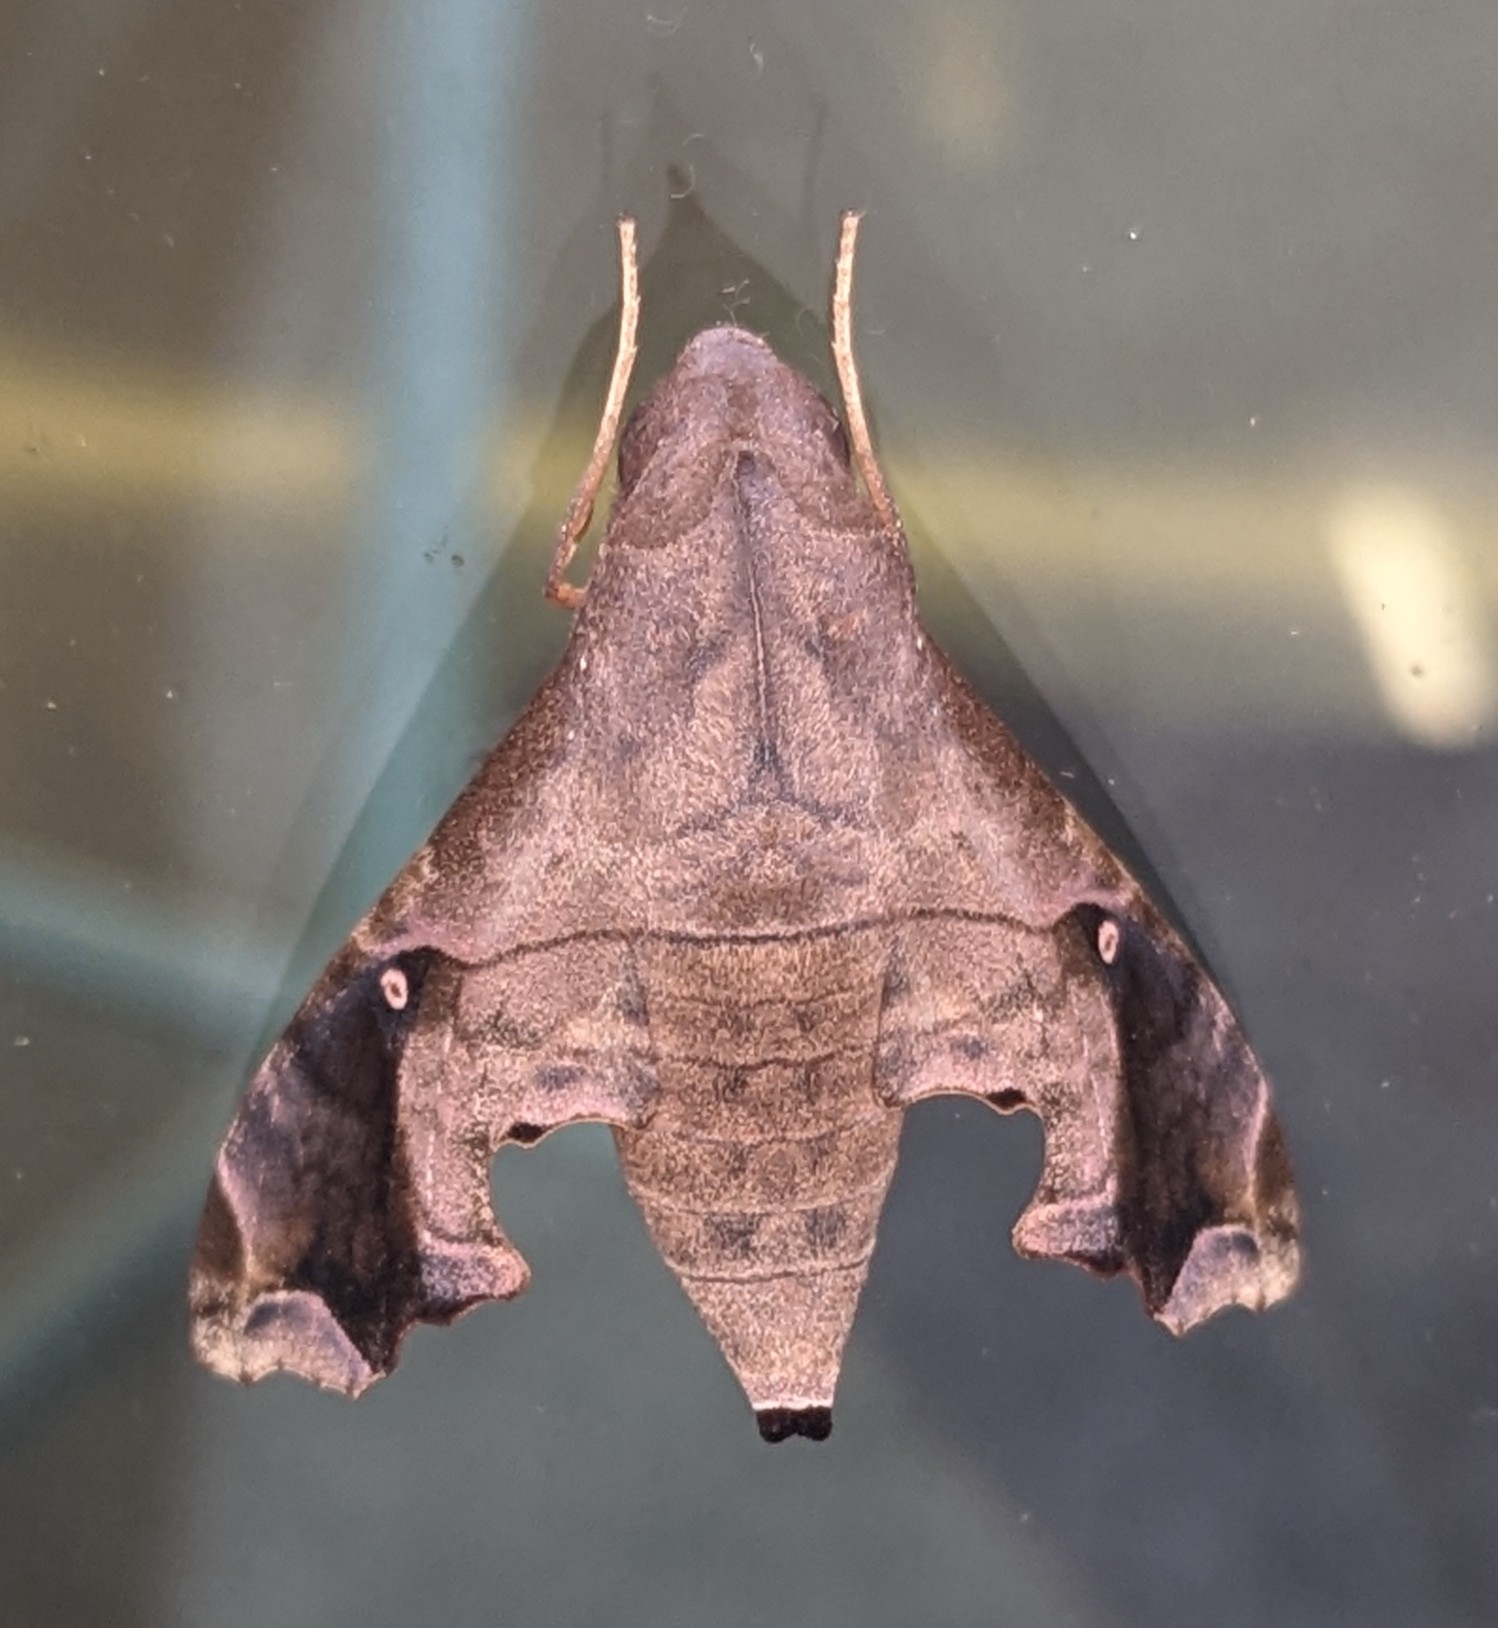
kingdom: Animalia
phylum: Arthropoda
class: Insecta
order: Lepidoptera
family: Sphingidae
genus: Enyo
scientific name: Enyo lugubris
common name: Mournful sphinx
